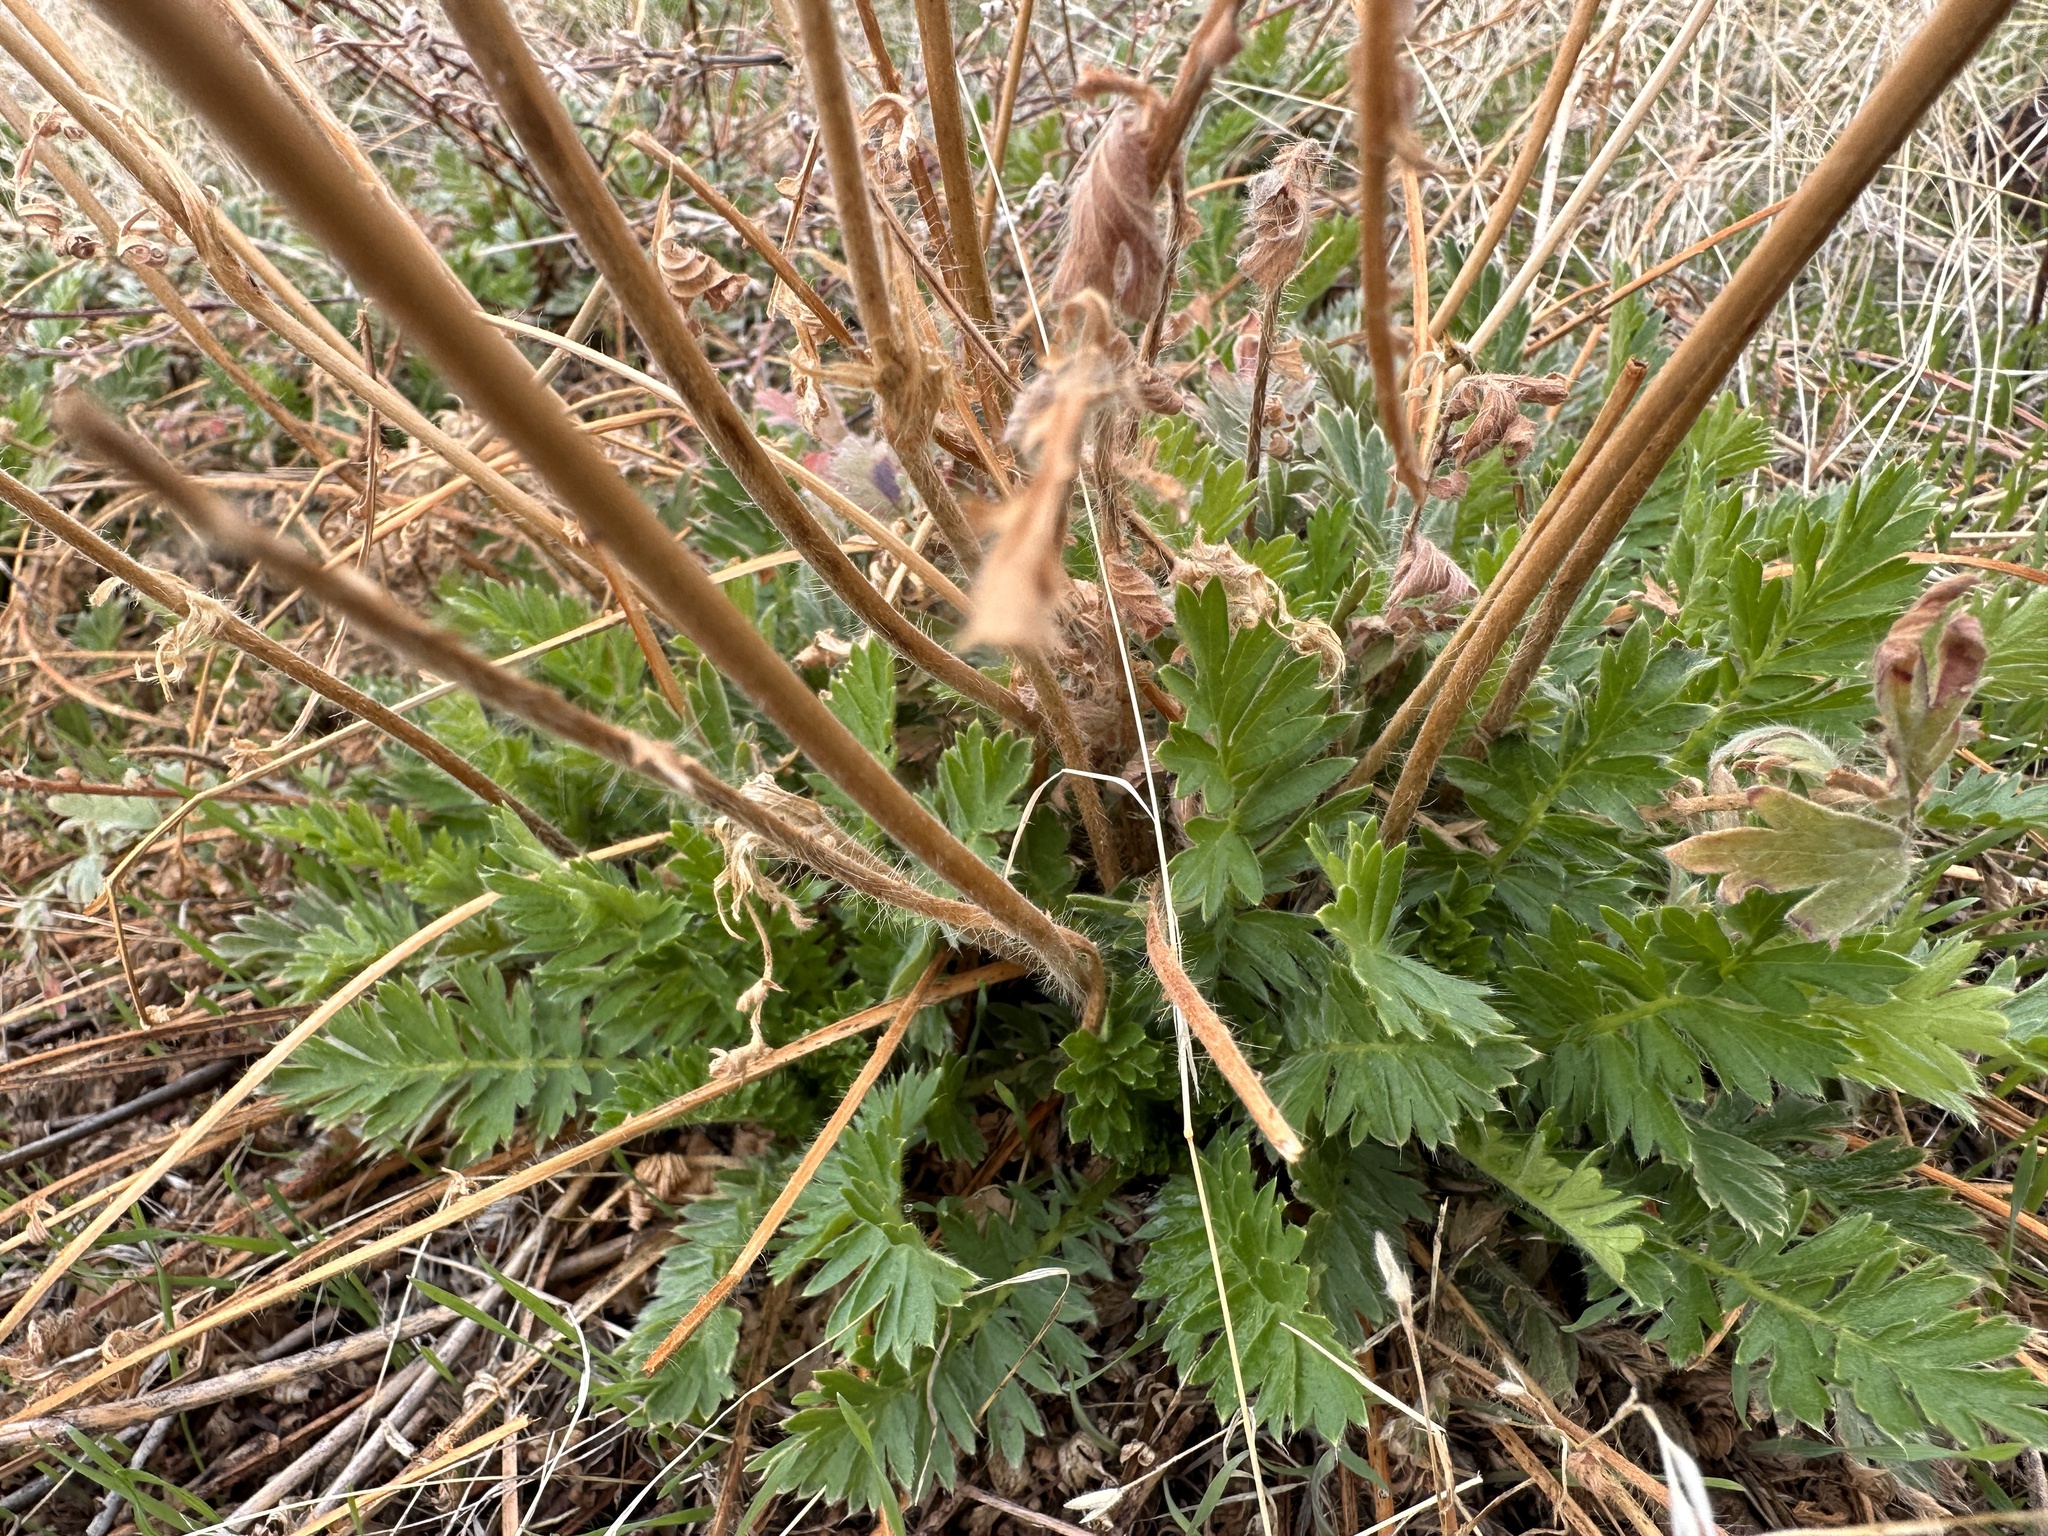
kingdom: Plantae
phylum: Tracheophyta
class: Magnoliopsida
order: Rosales
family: Rosaceae
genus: Geum
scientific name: Geum triflorum
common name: Old man's whiskers
